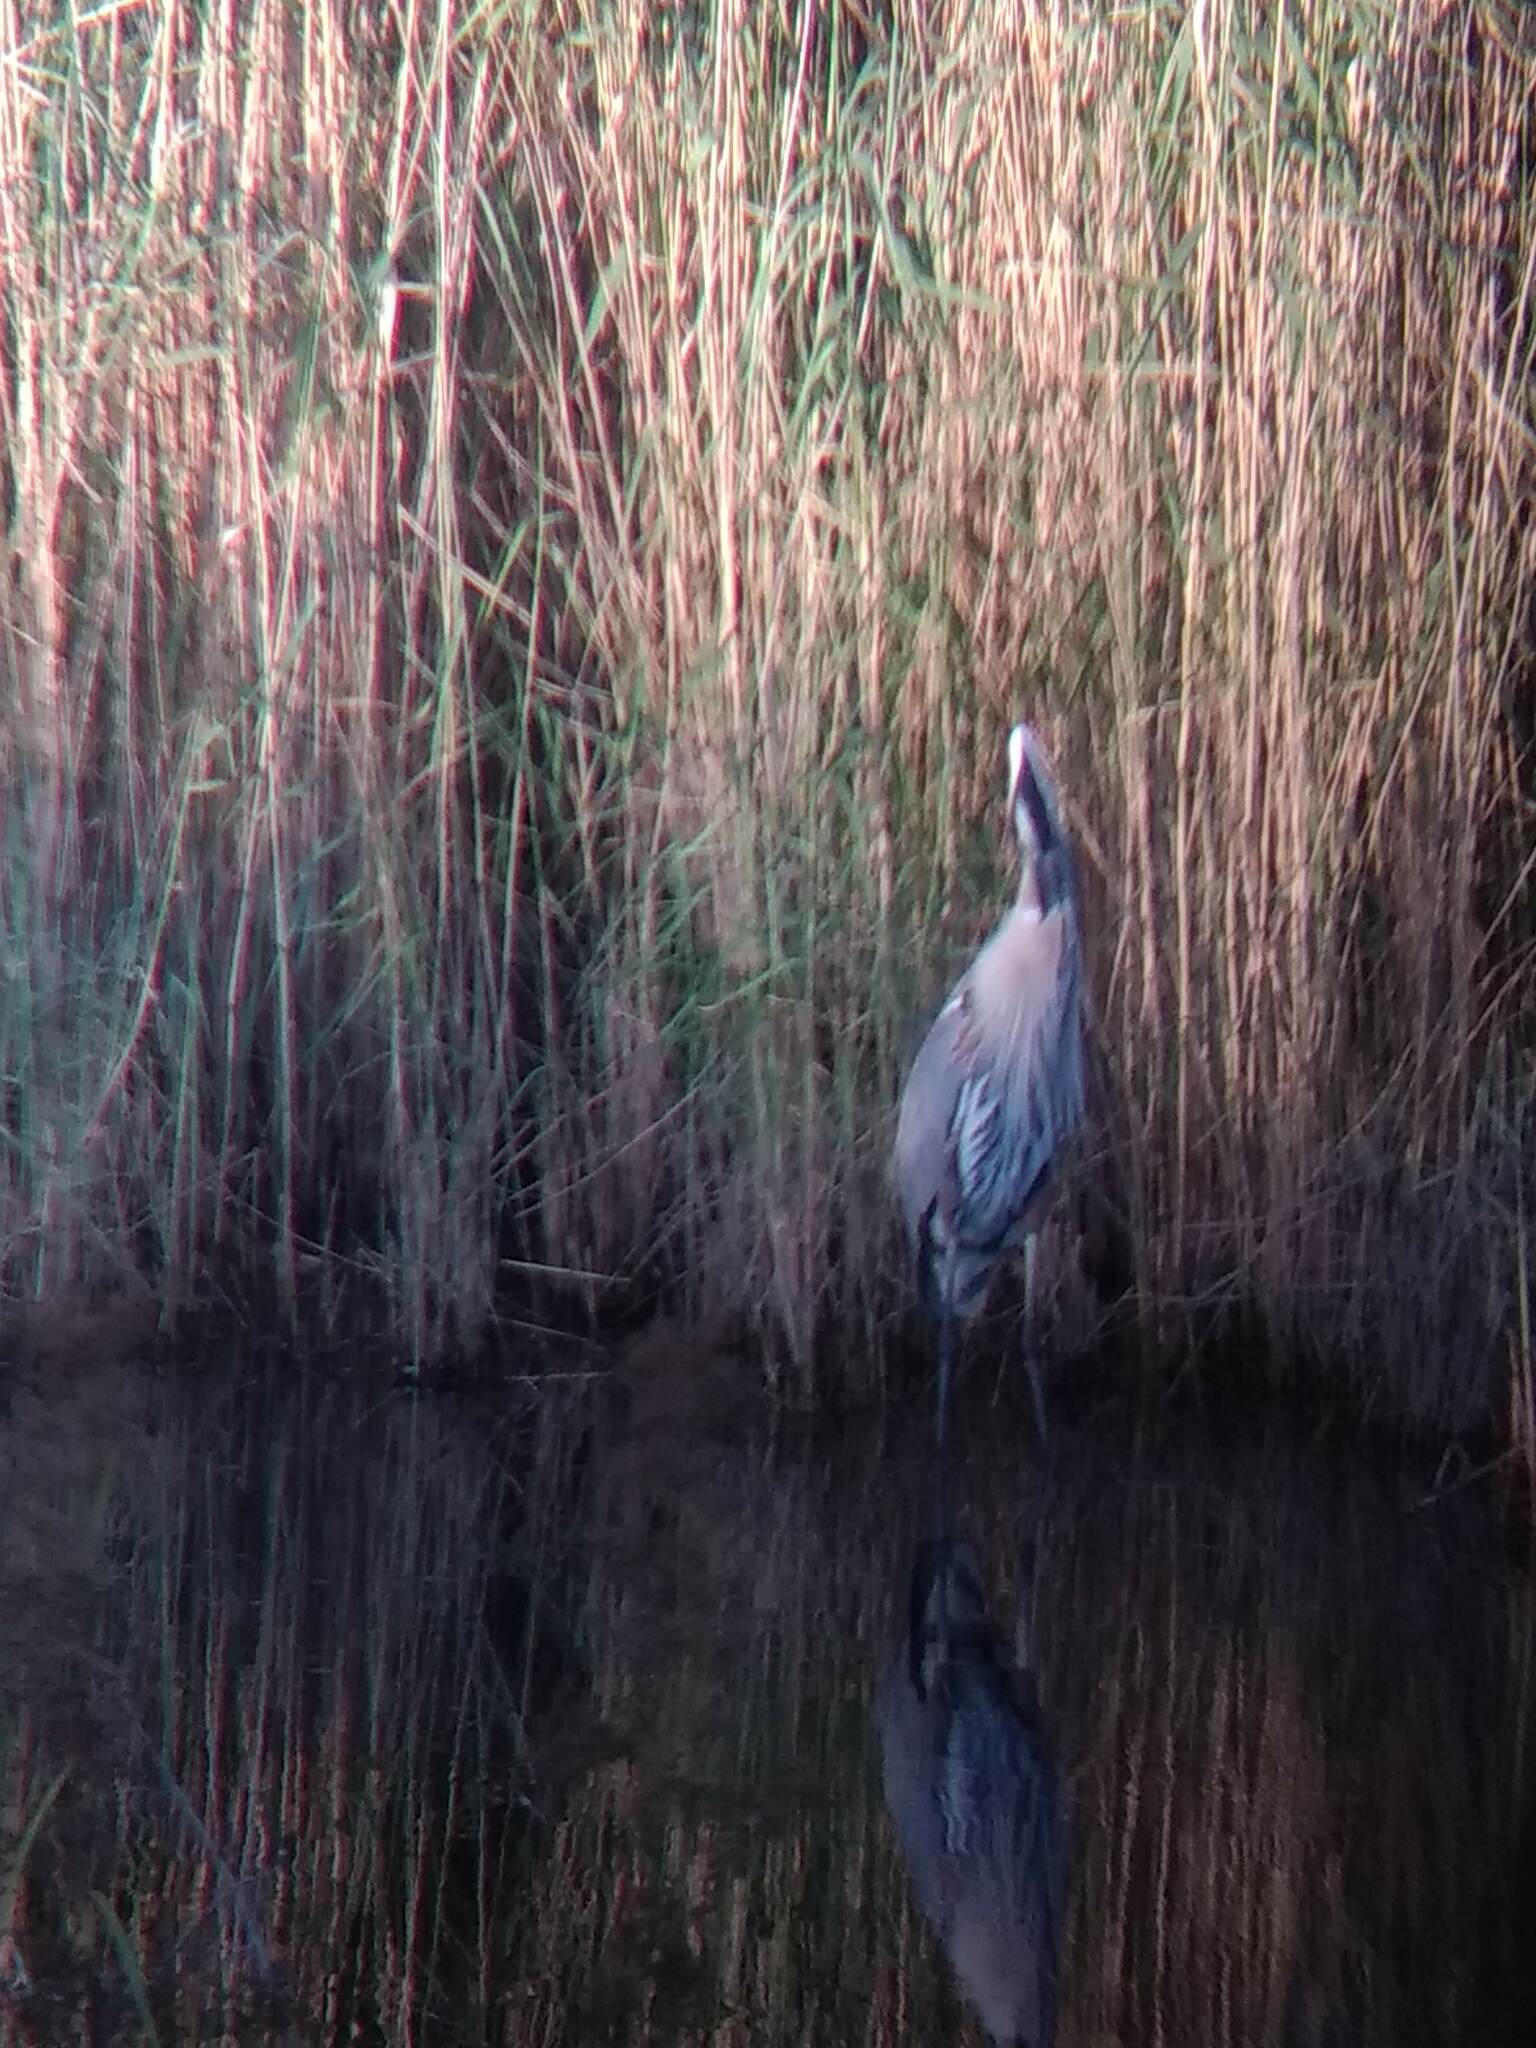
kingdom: Animalia
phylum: Chordata
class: Aves
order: Pelecaniformes
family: Ardeidae
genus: Ardea
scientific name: Ardea herodias
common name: Great blue heron
